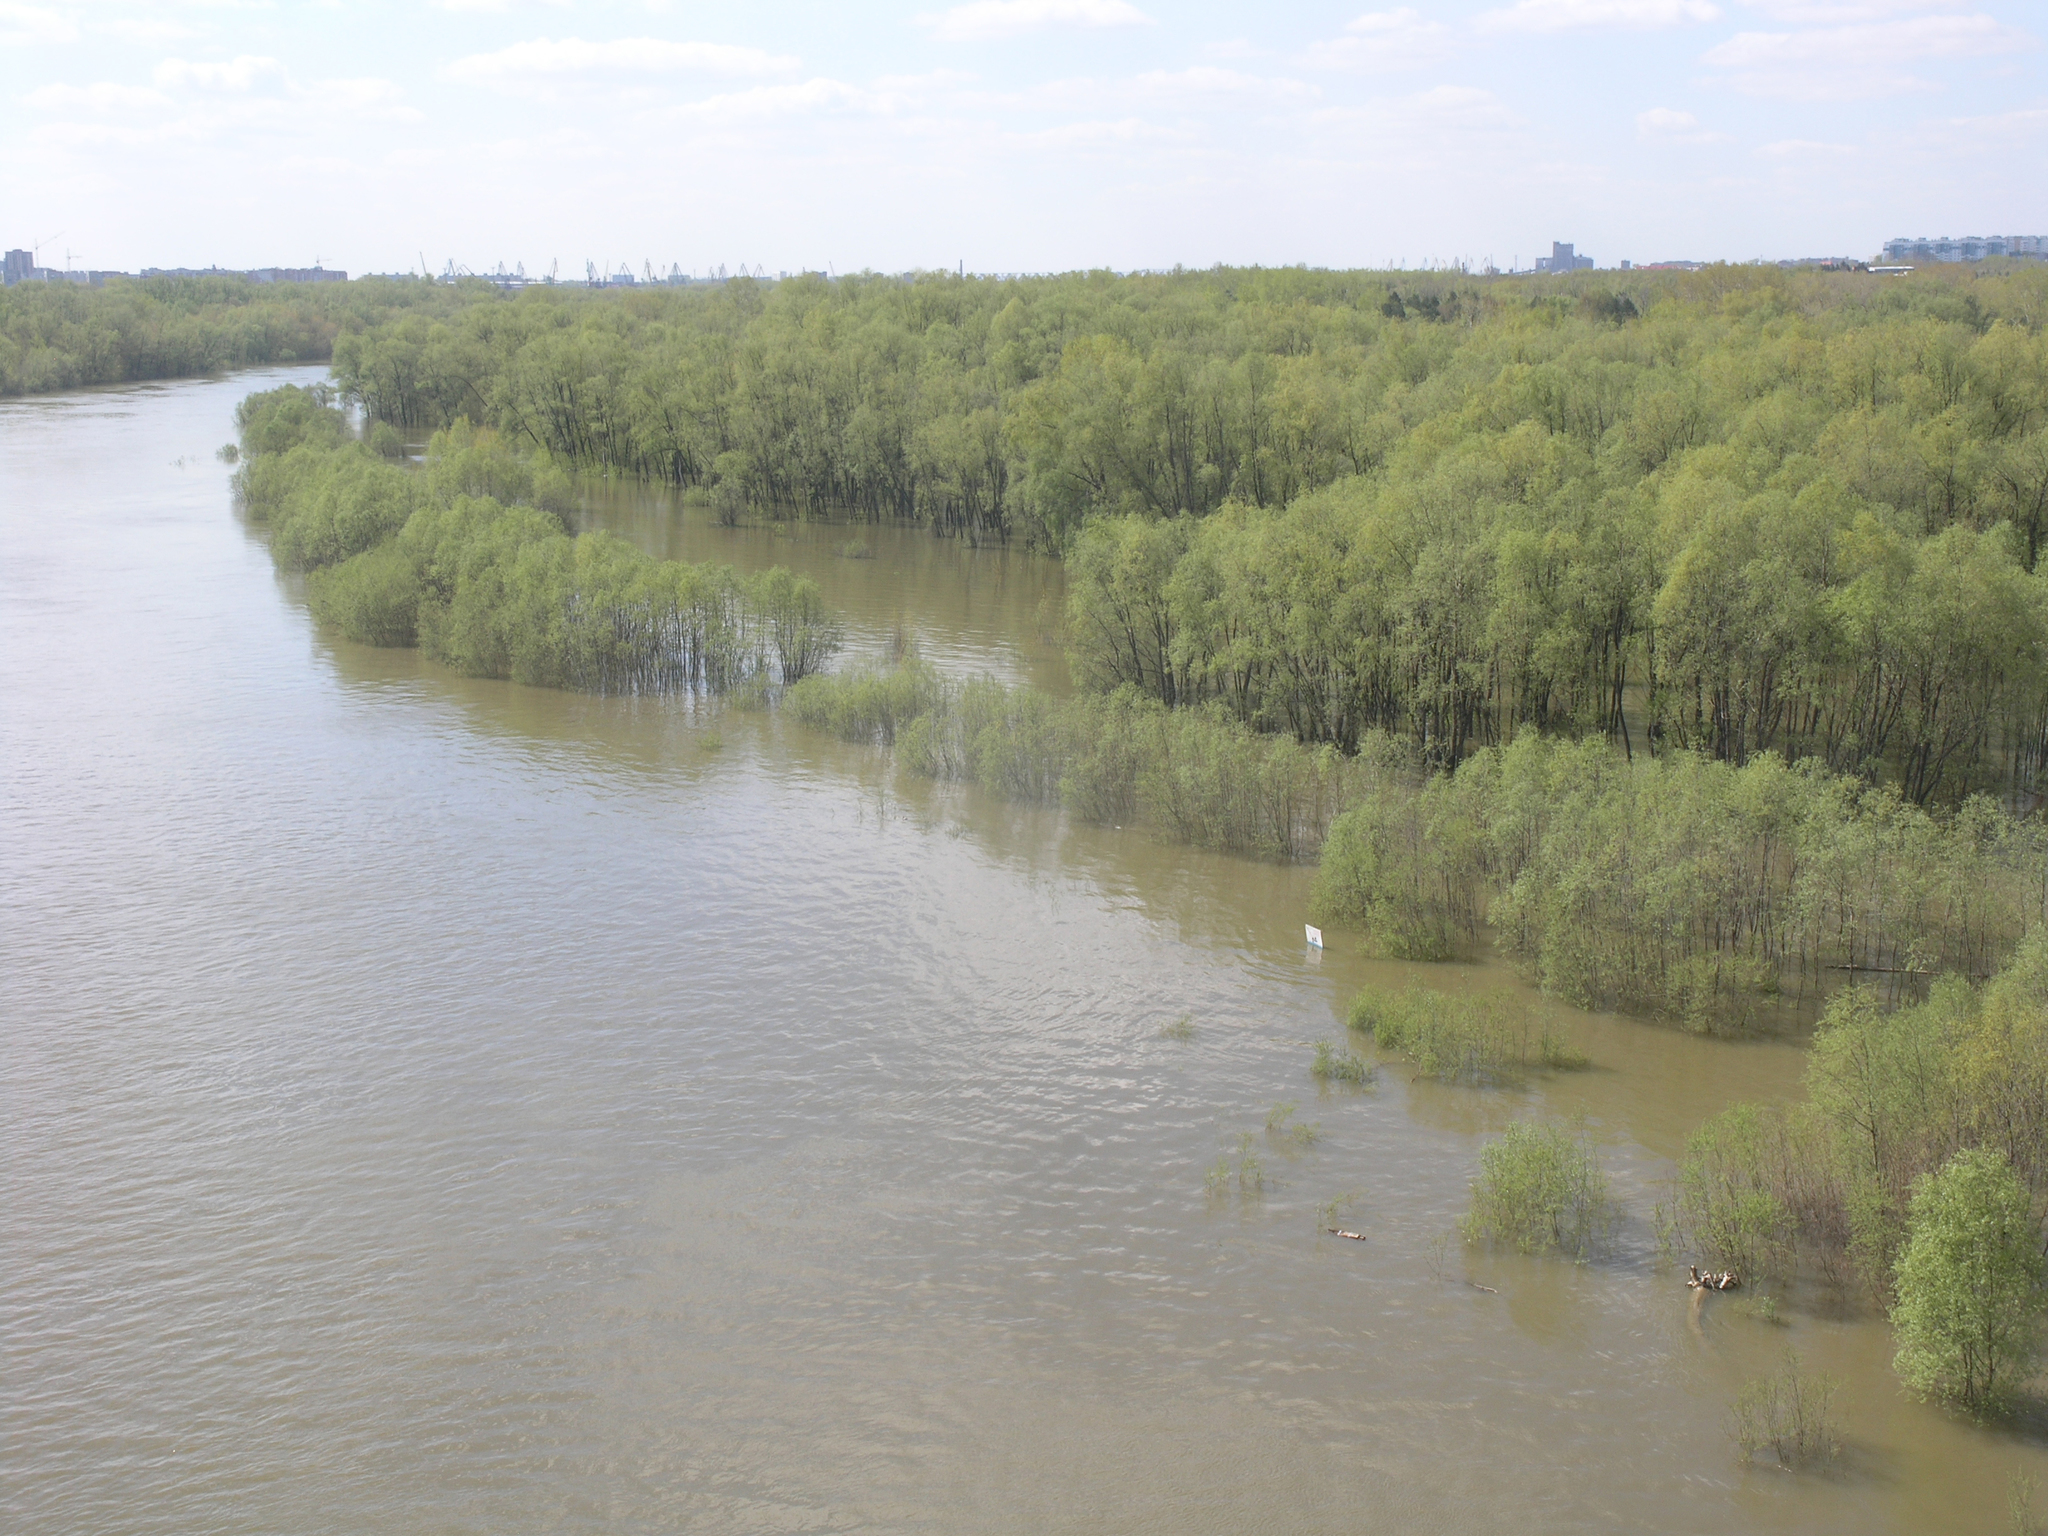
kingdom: Plantae
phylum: Tracheophyta
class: Magnoliopsida
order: Malpighiales
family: Salicaceae
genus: Salix
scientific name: Salix alba
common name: White willow
